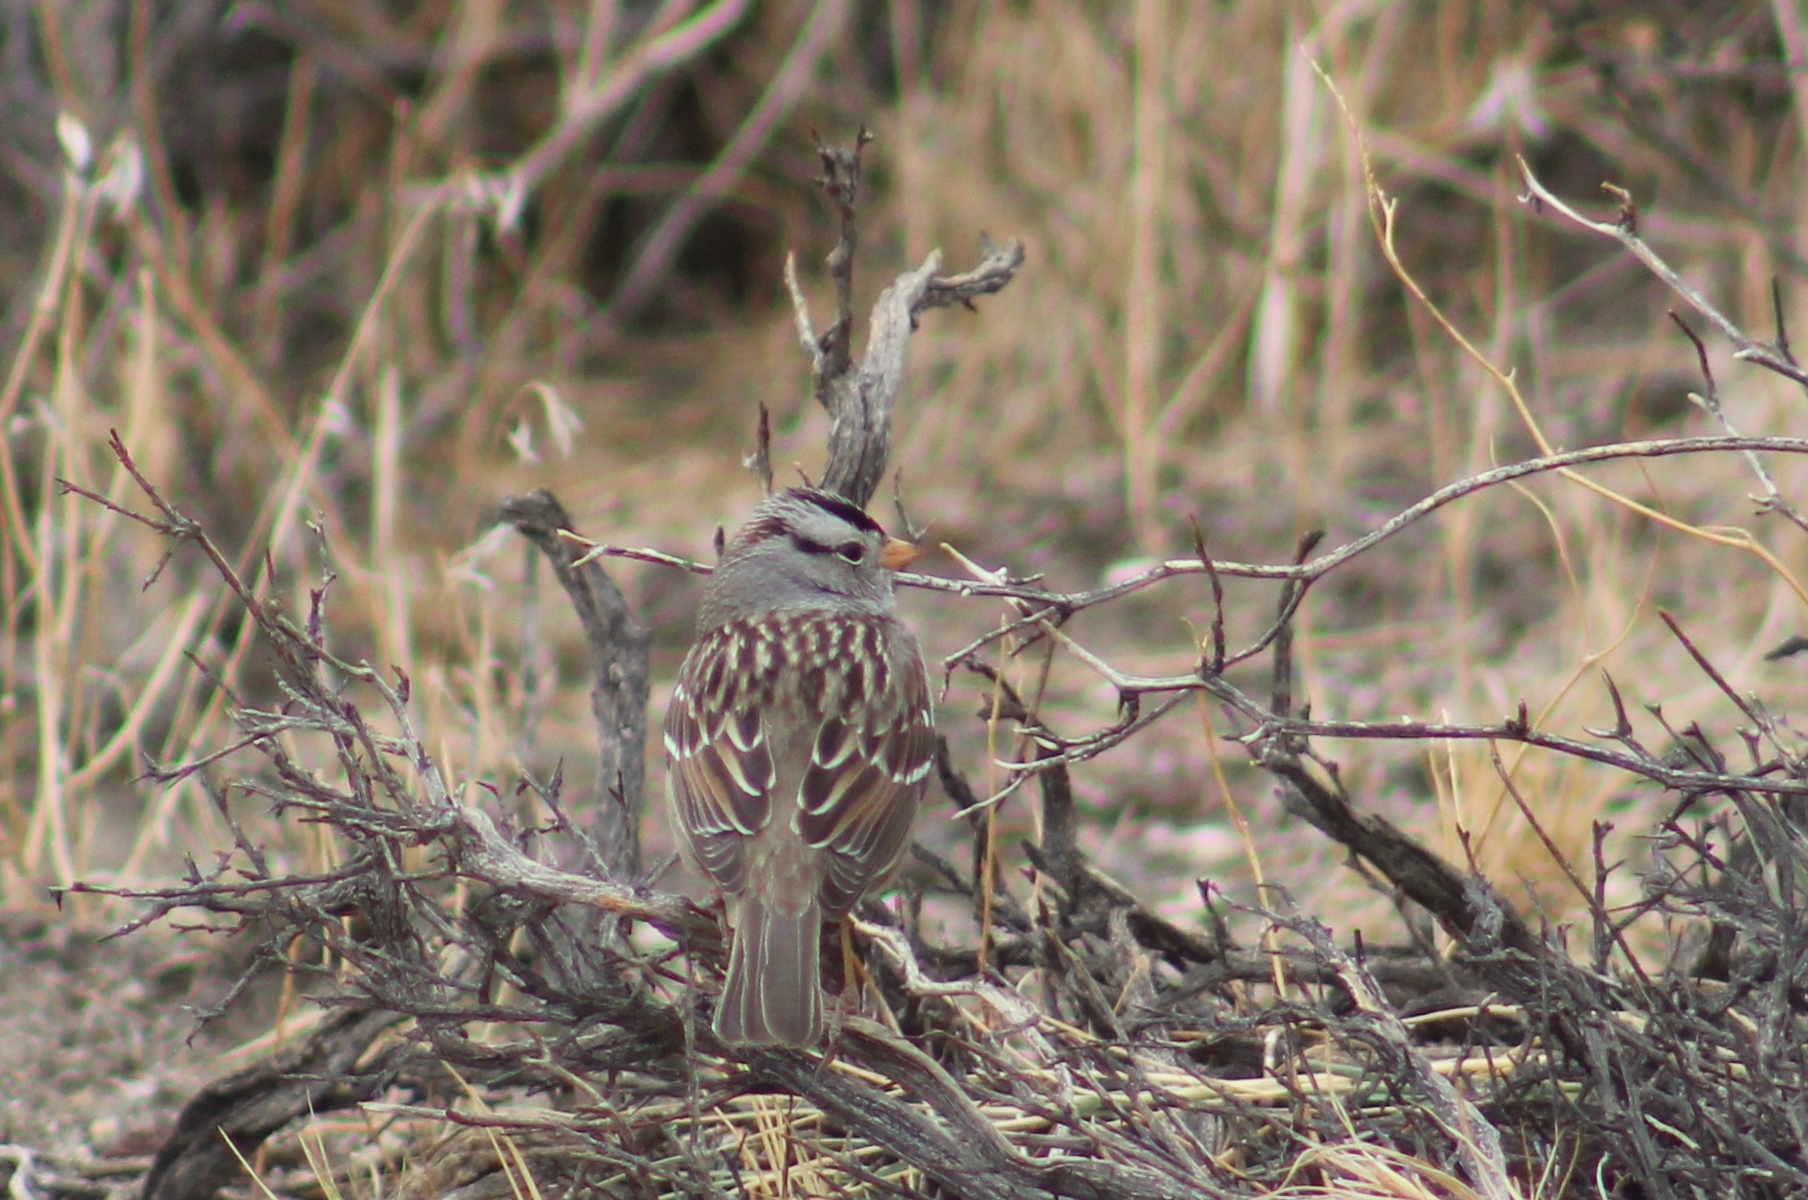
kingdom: Animalia
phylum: Chordata
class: Aves
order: Passeriformes
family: Passerellidae
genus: Zonotrichia
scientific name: Zonotrichia leucophrys
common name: White-crowned sparrow
